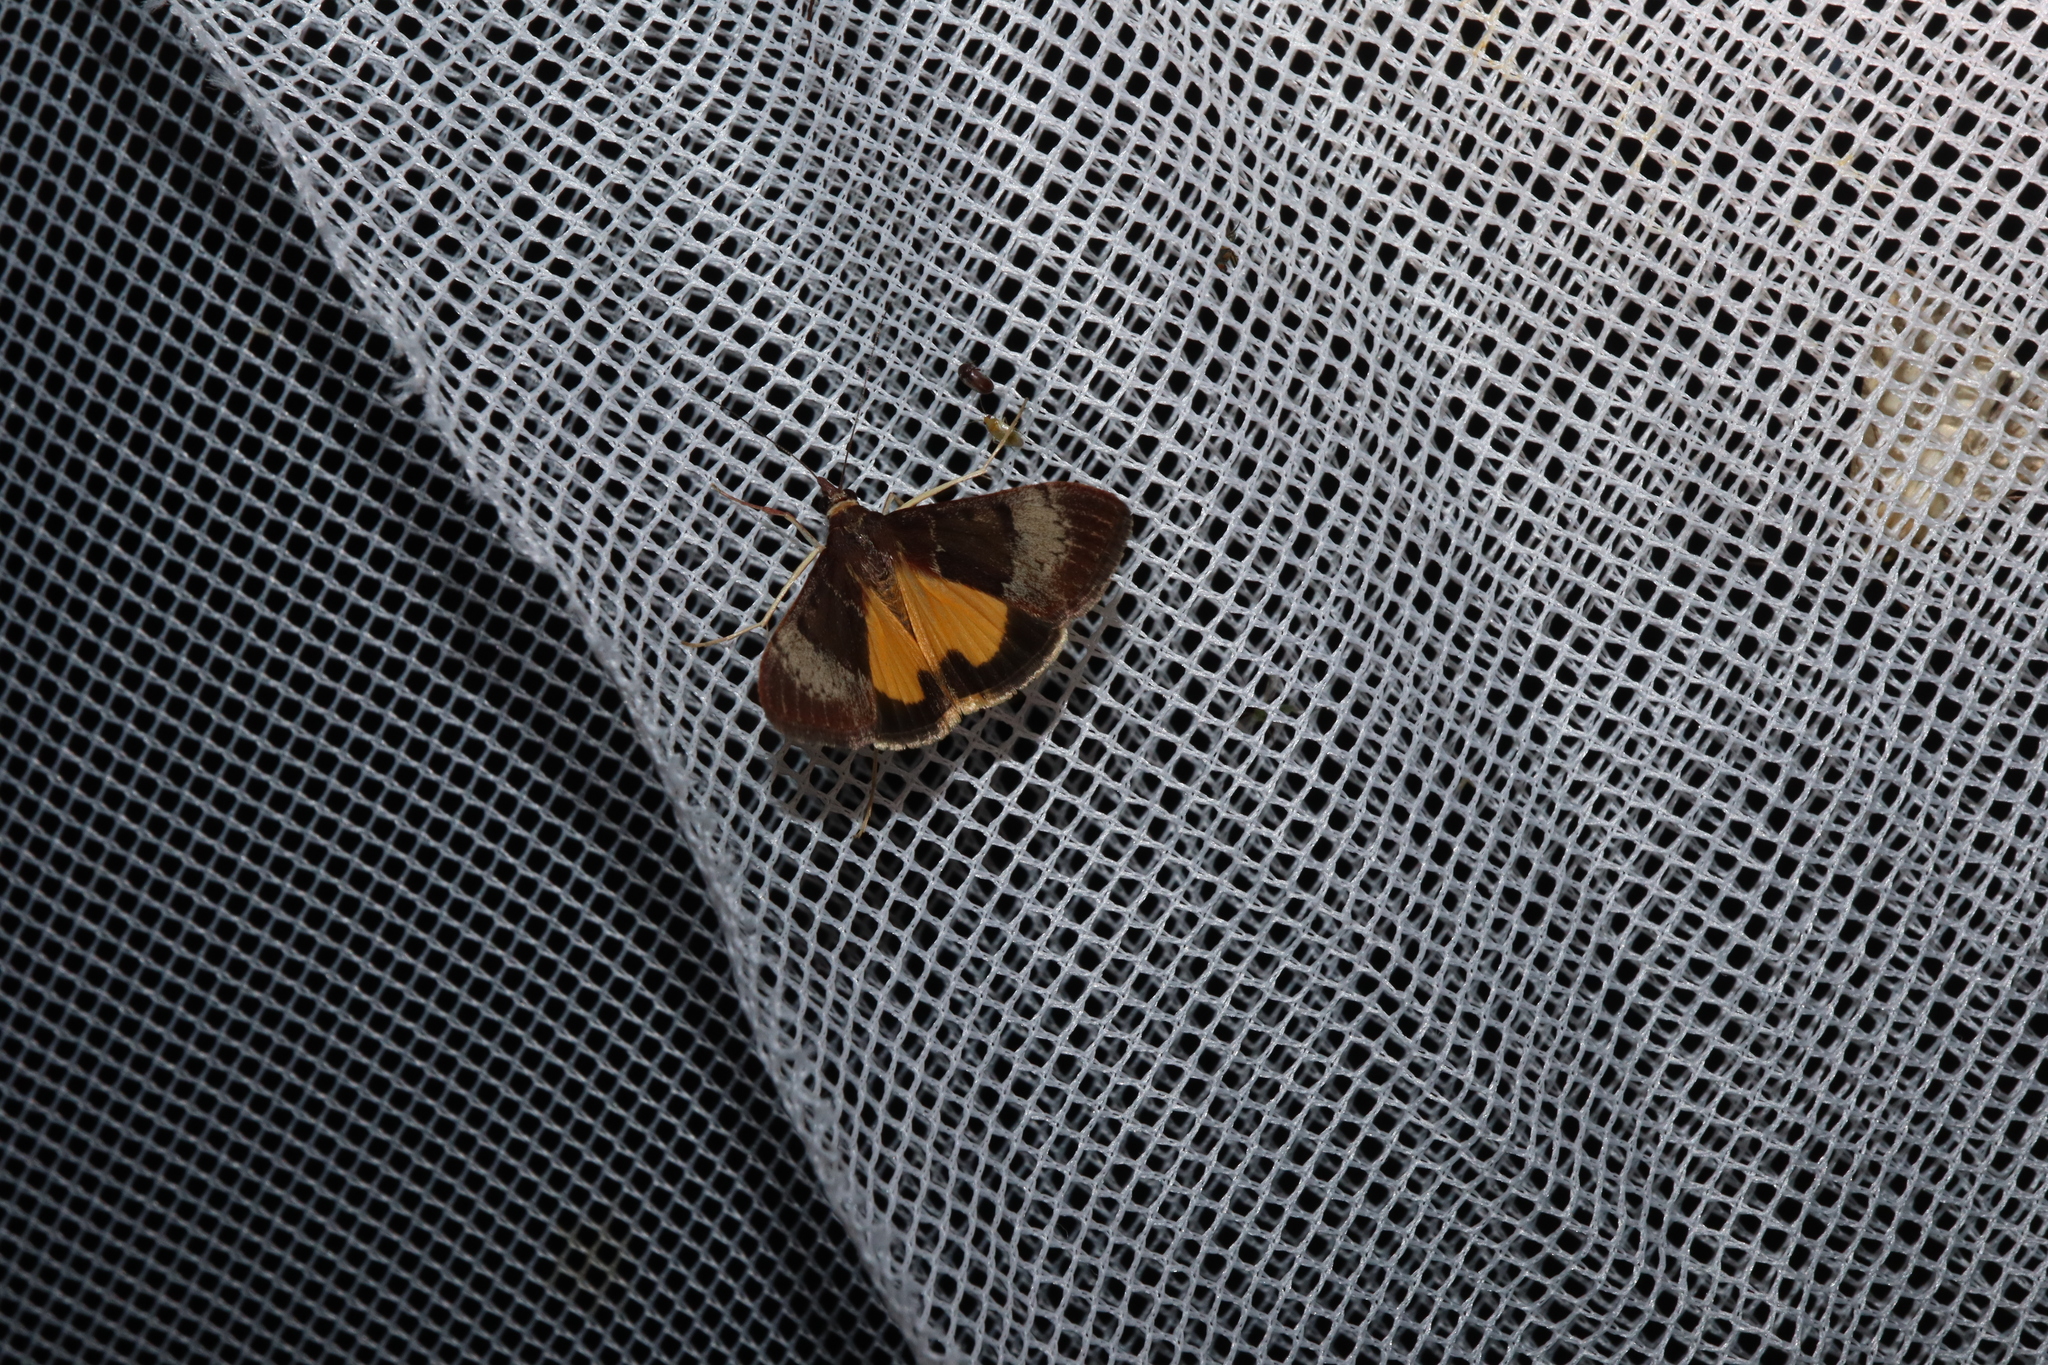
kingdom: Animalia
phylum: Arthropoda
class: Insecta
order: Lepidoptera
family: Crambidae
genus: Uresiphita
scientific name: Uresiphita ornithopteralis
